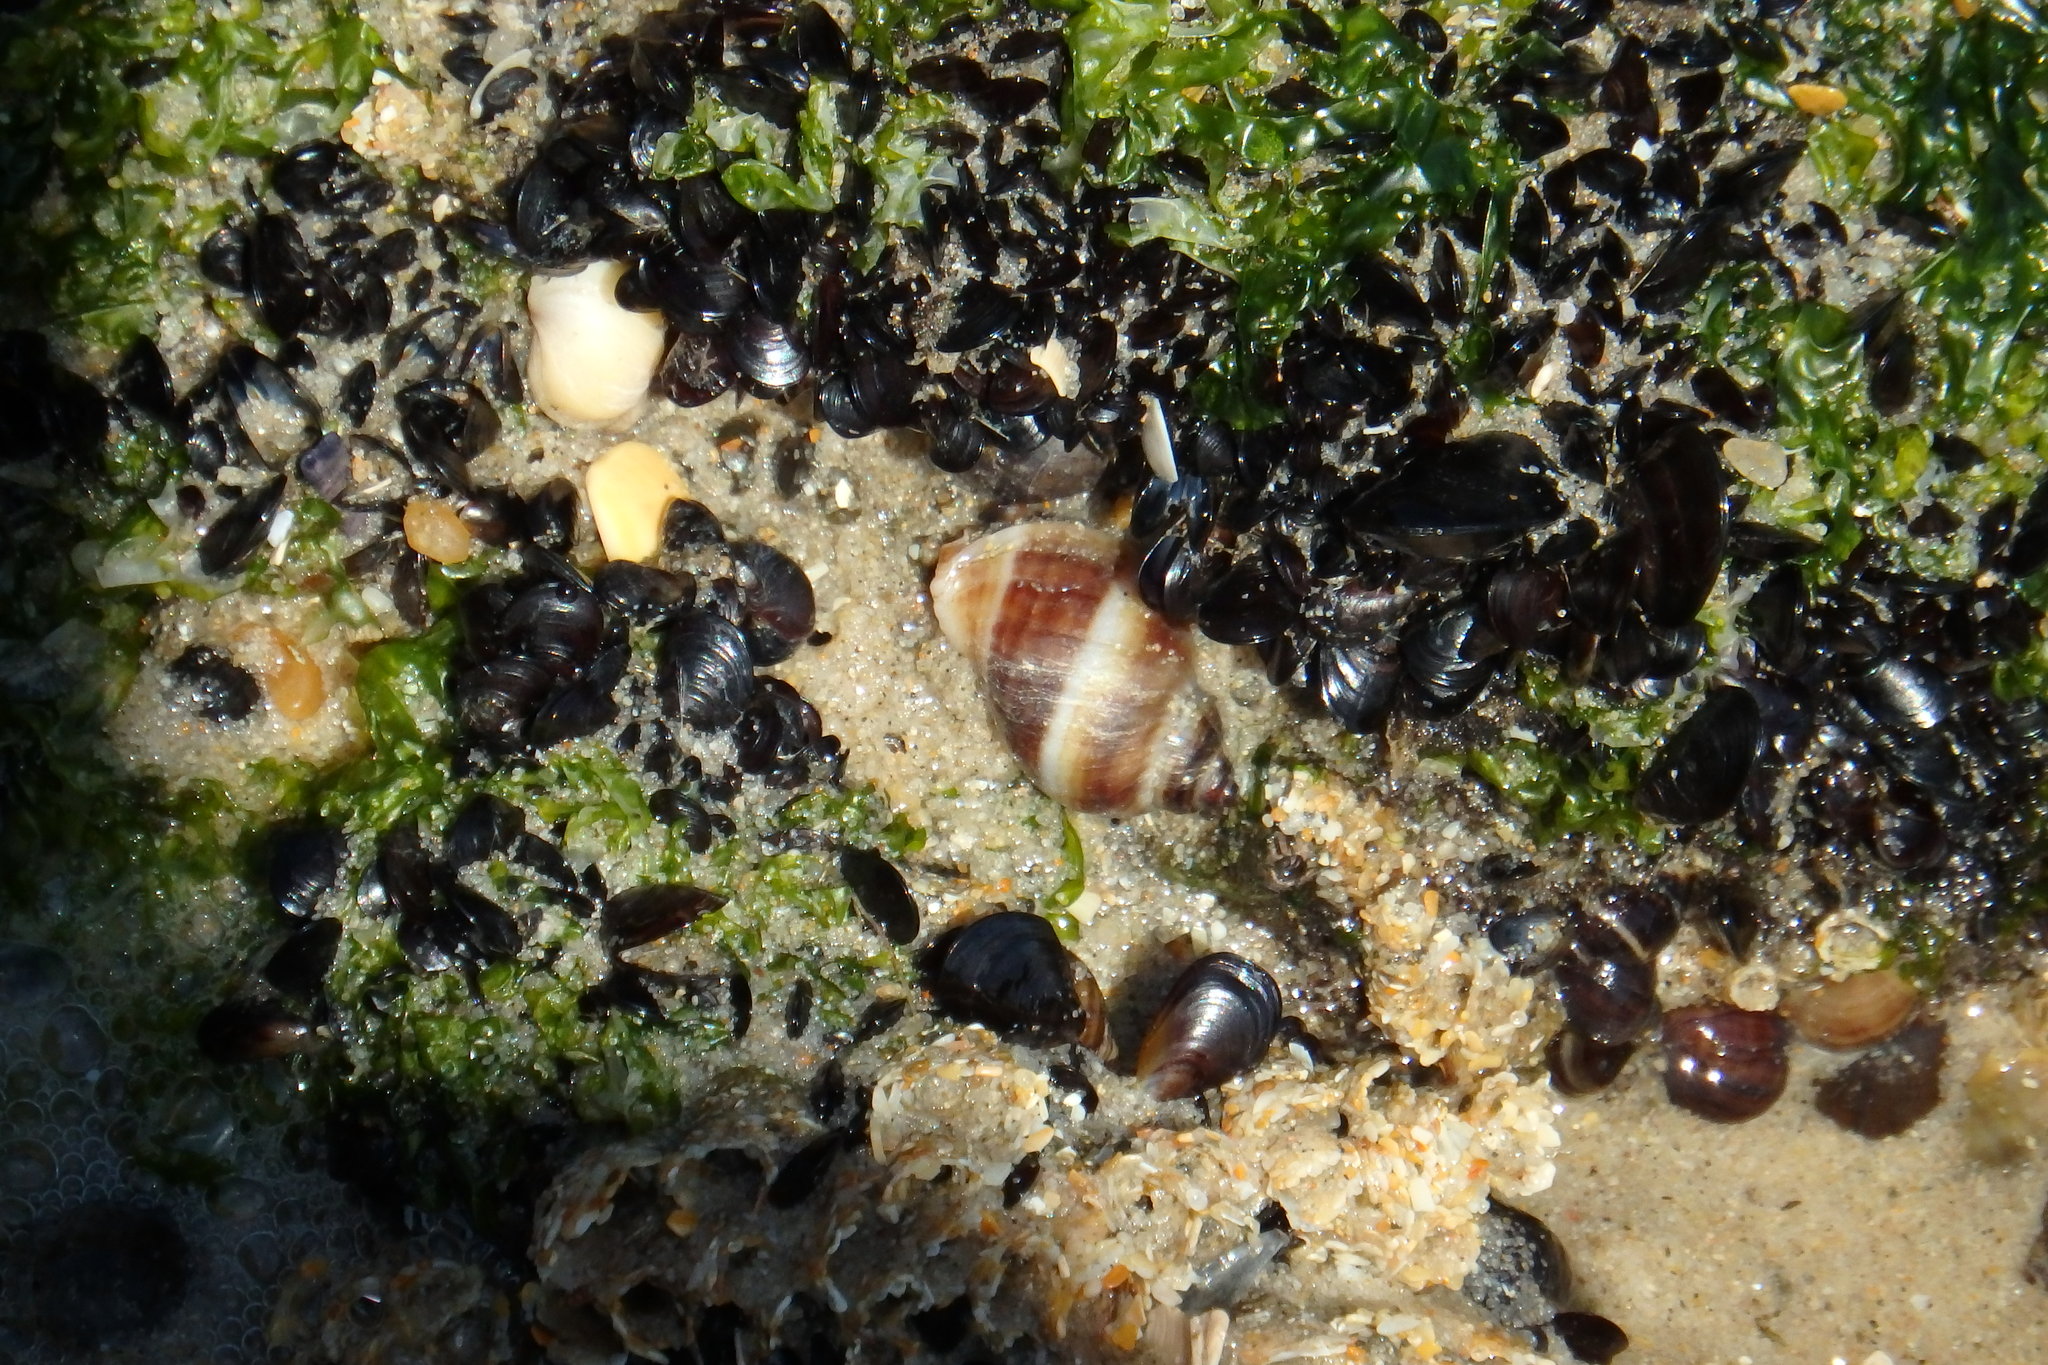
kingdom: Animalia
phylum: Mollusca
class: Gastropoda
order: Neogastropoda
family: Muricidae
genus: Nucella
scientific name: Nucella lapillus
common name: Dog whelk
